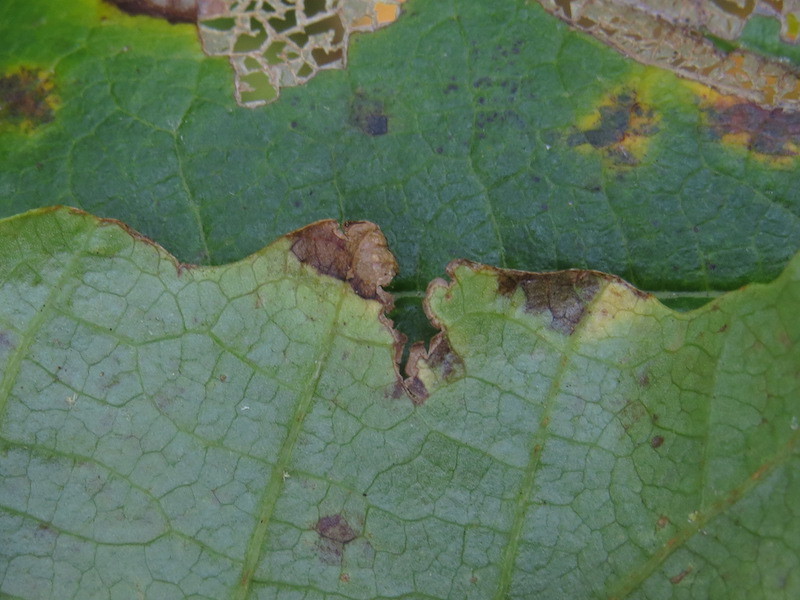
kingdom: Plantae
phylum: Tracheophyta
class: Magnoliopsida
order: Saxifragales
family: Hamamelidaceae
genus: Hamamelis
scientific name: Hamamelis virginiana
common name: Witch-hazel
